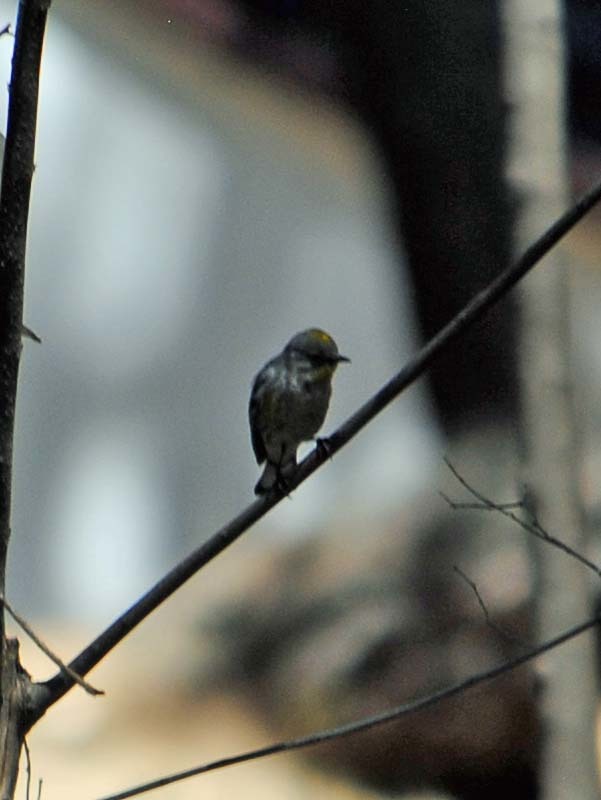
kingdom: Animalia
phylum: Chordata
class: Aves
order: Passeriformes
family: Parulidae
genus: Setophaga
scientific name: Setophaga auduboni
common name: Audubon's warbler
